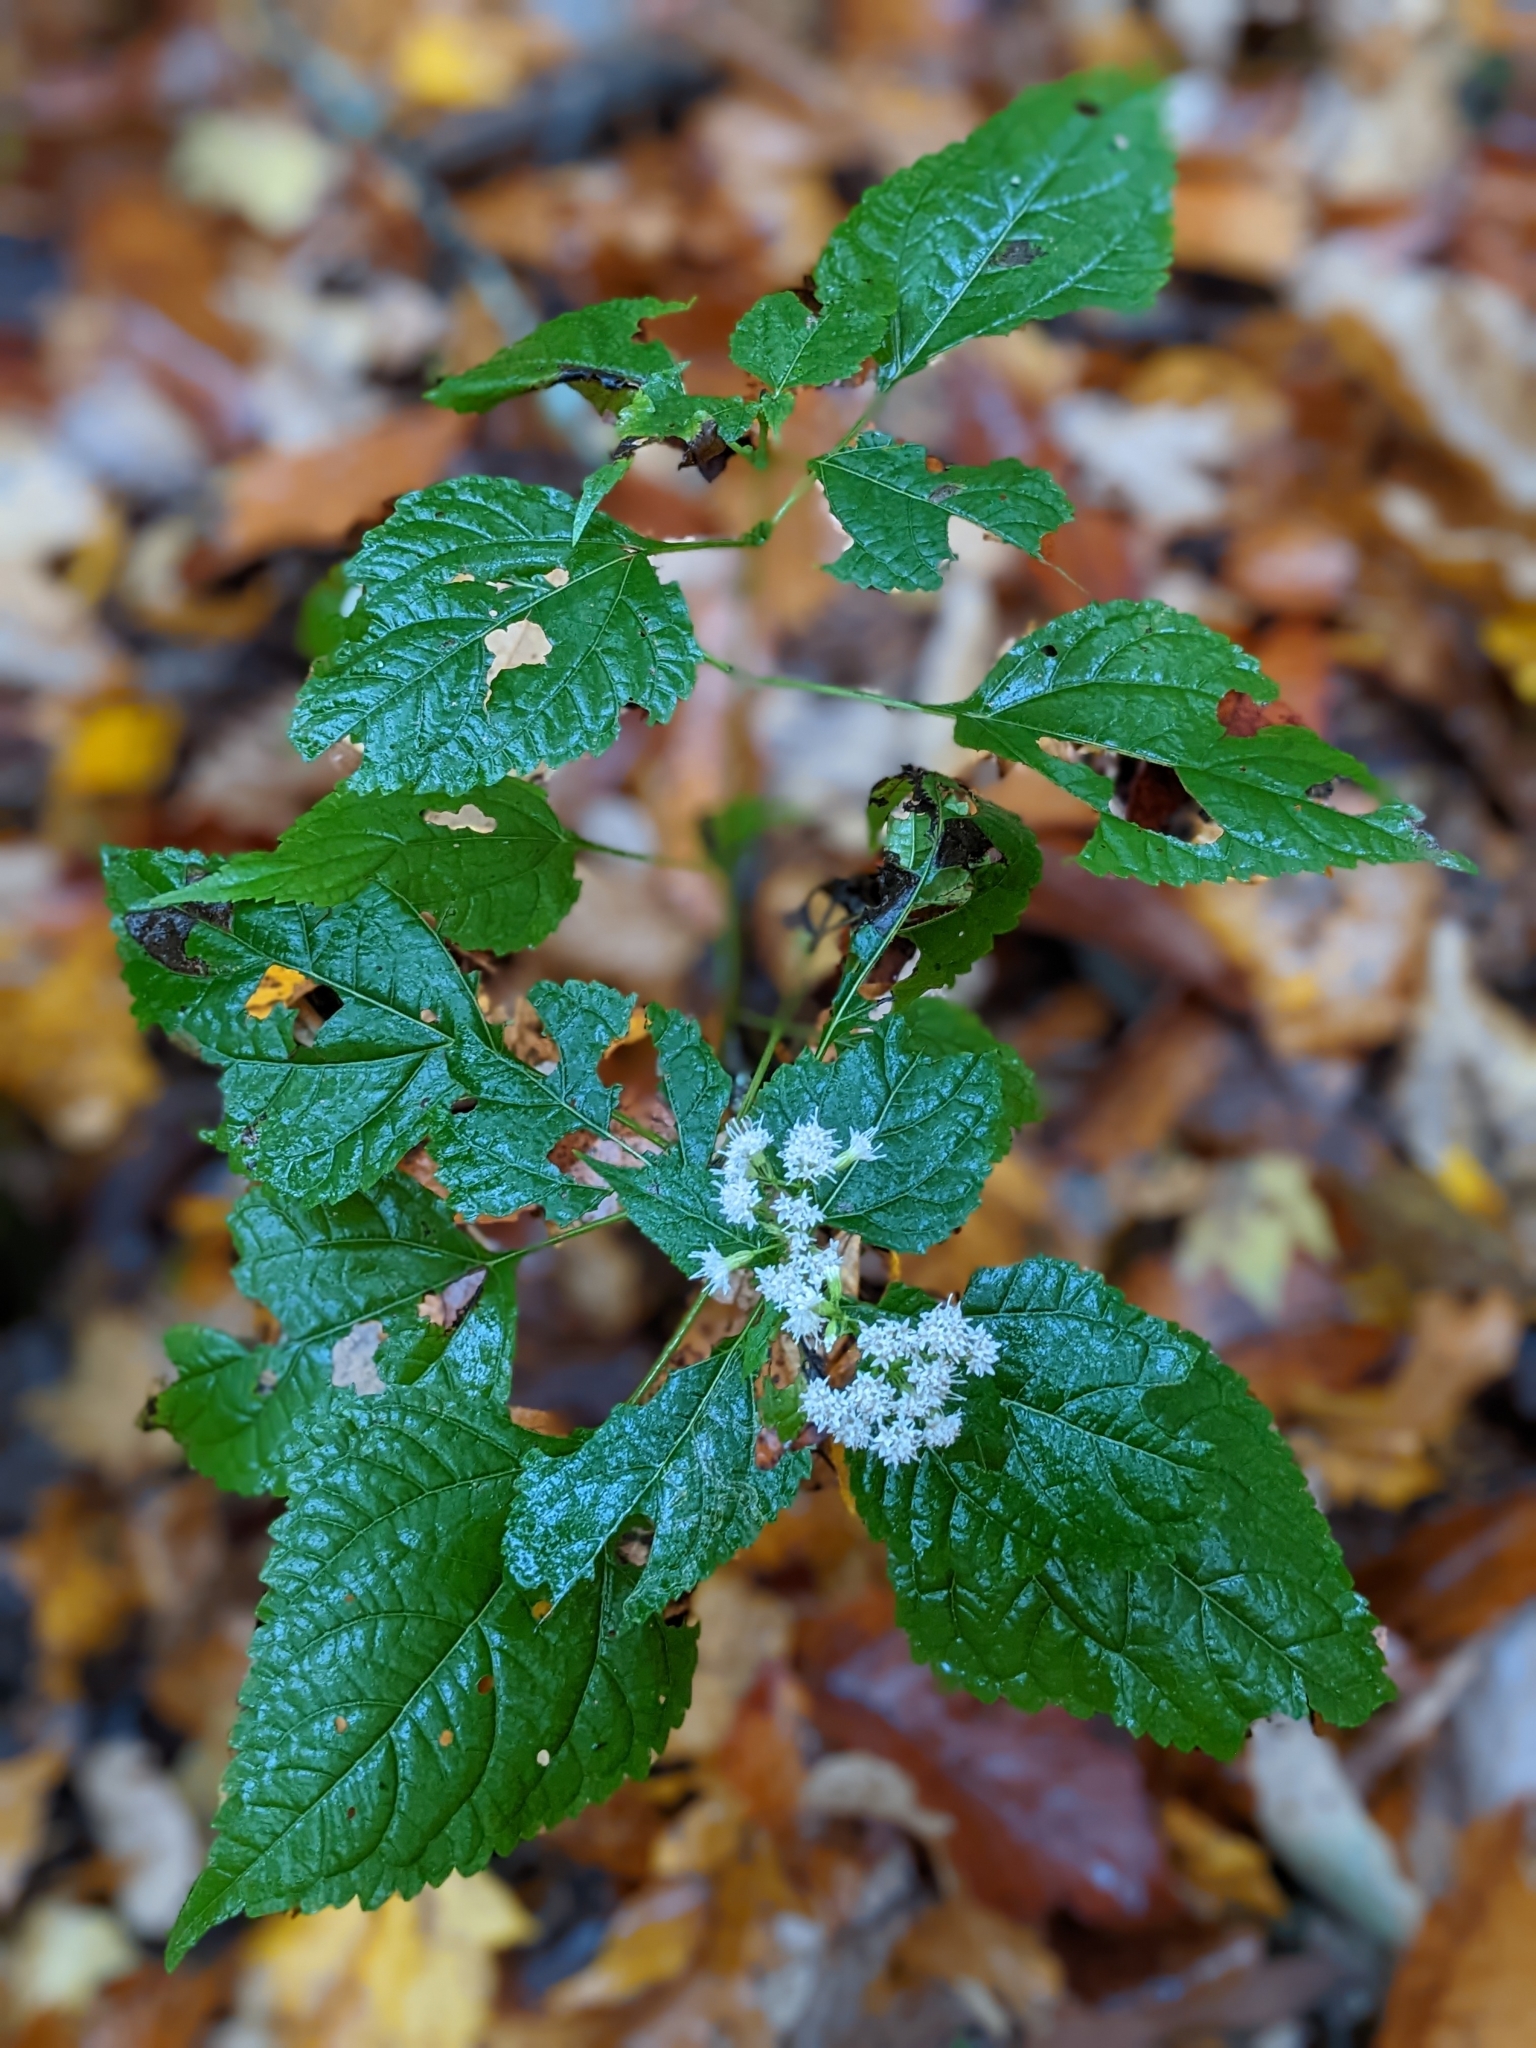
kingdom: Plantae
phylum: Tracheophyta
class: Magnoliopsida
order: Asterales
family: Asteraceae
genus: Ageratina
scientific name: Ageratina altissima
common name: White snakeroot
